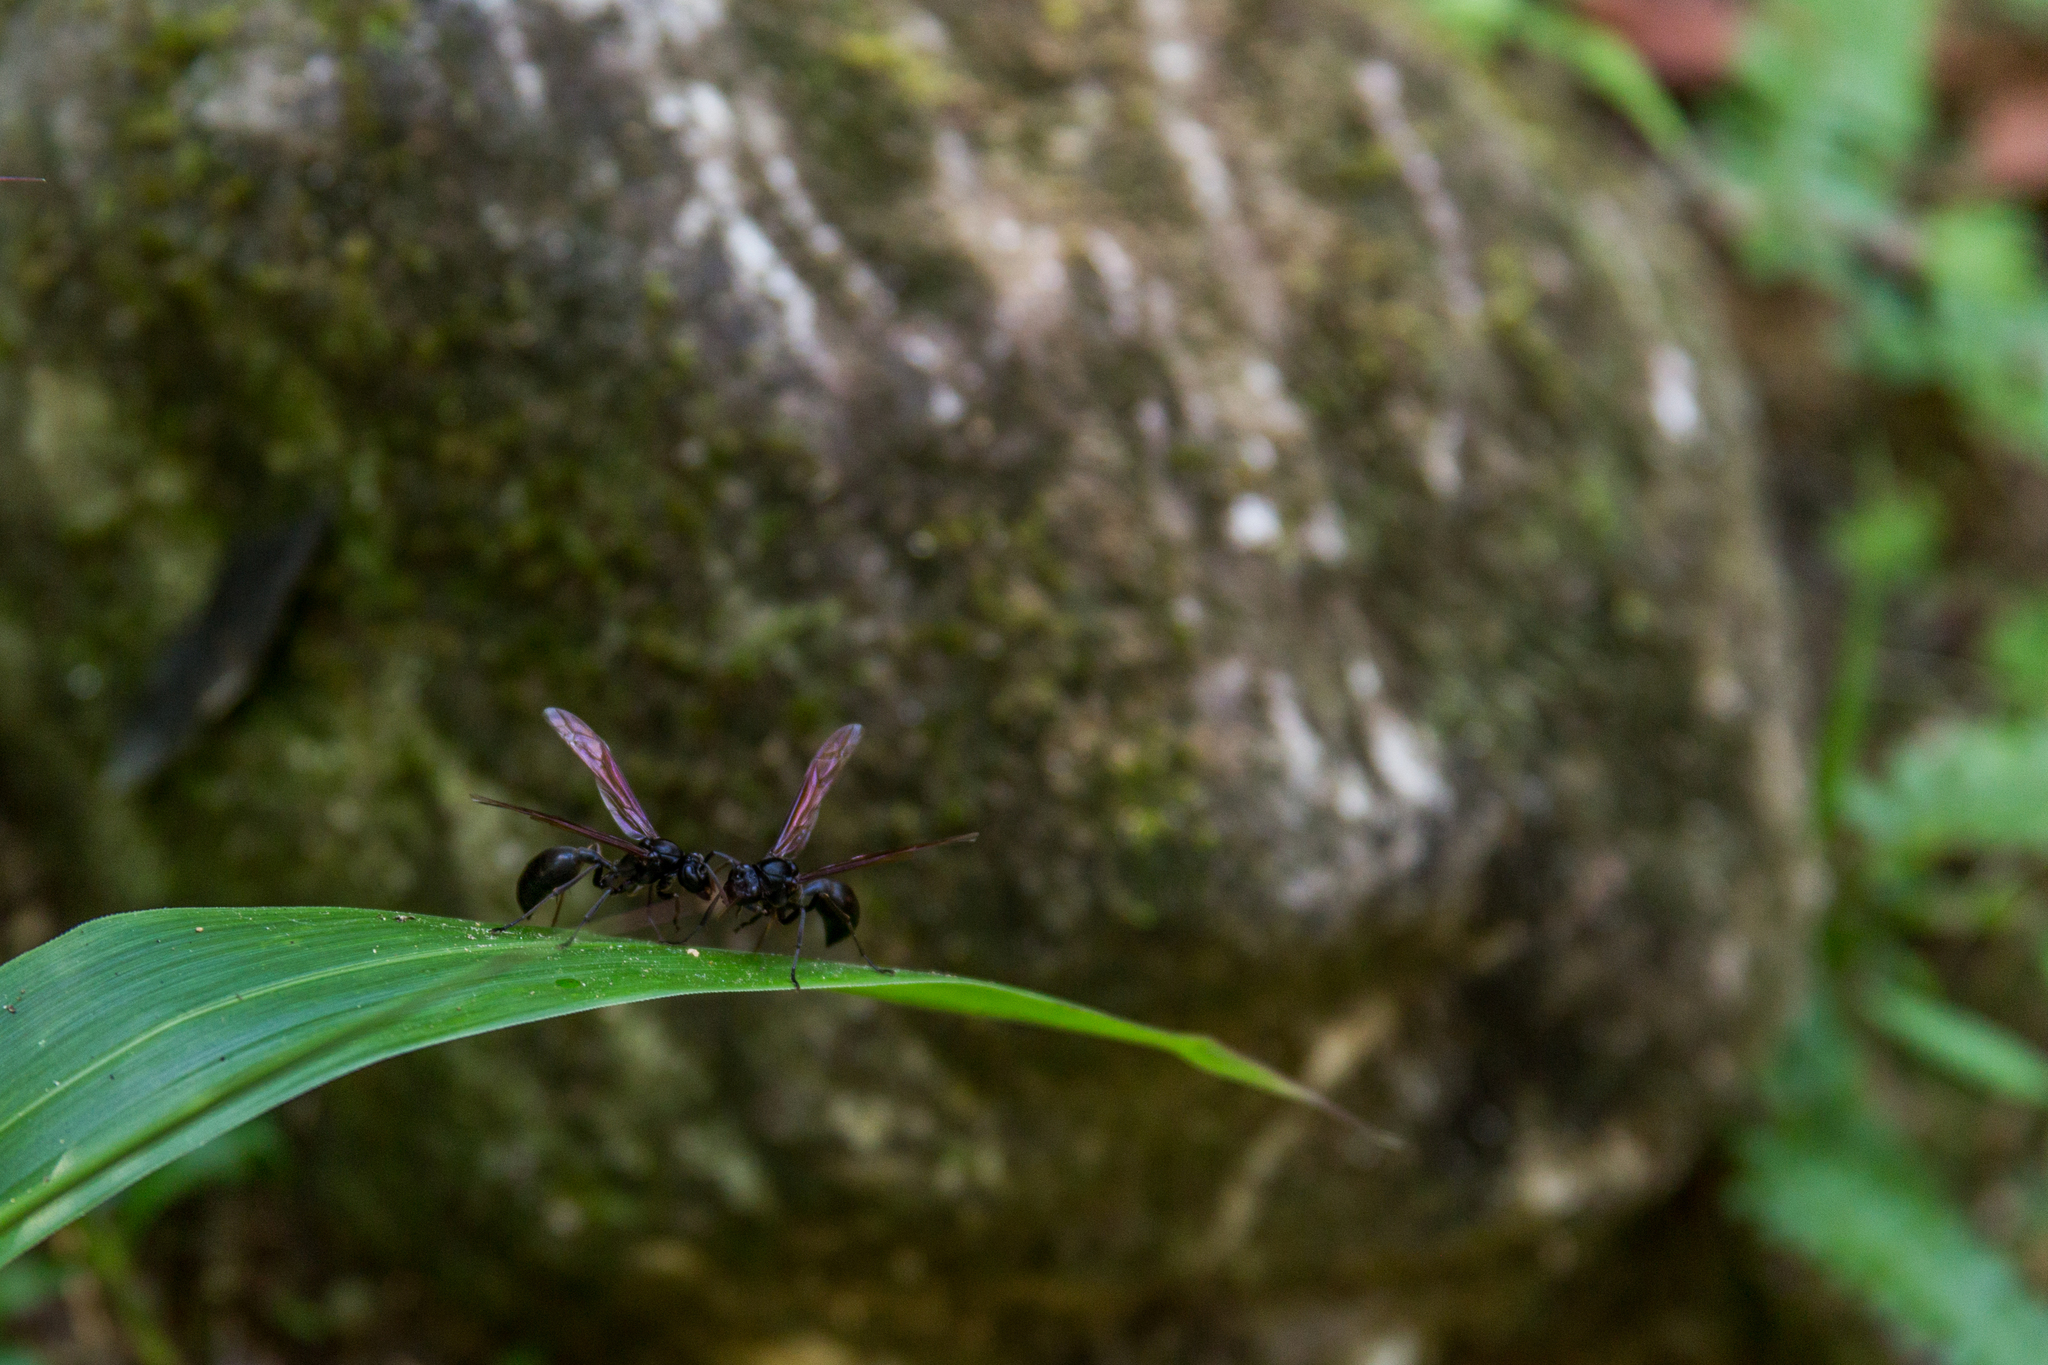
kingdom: Animalia
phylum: Arthropoda
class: Insecta
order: Hymenoptera
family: Vespidae
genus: Agelaia
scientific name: Agelaia angulata
